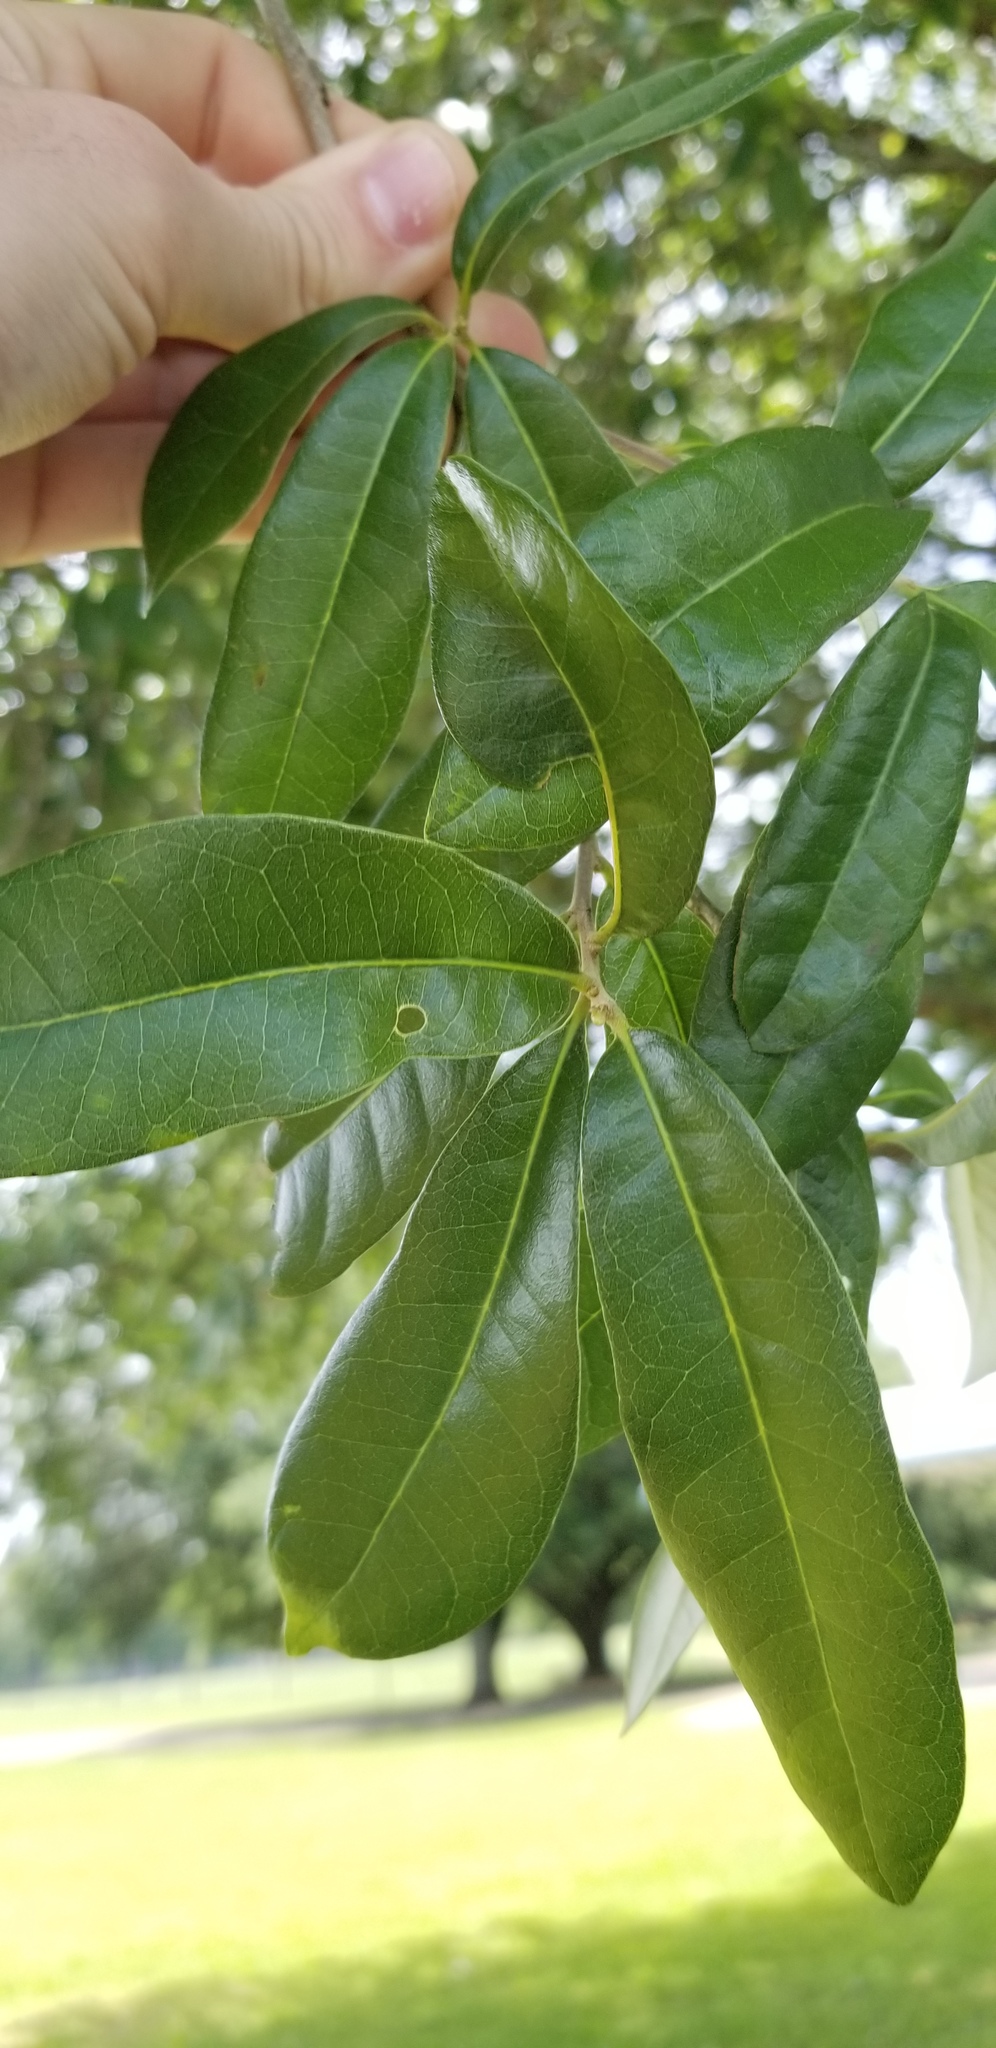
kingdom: Plantae
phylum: Tracheophyta
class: Magnoliopsida
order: Fagales
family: Fagaceae
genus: Quercus
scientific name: Quercus virginiana
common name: Southern live oak
